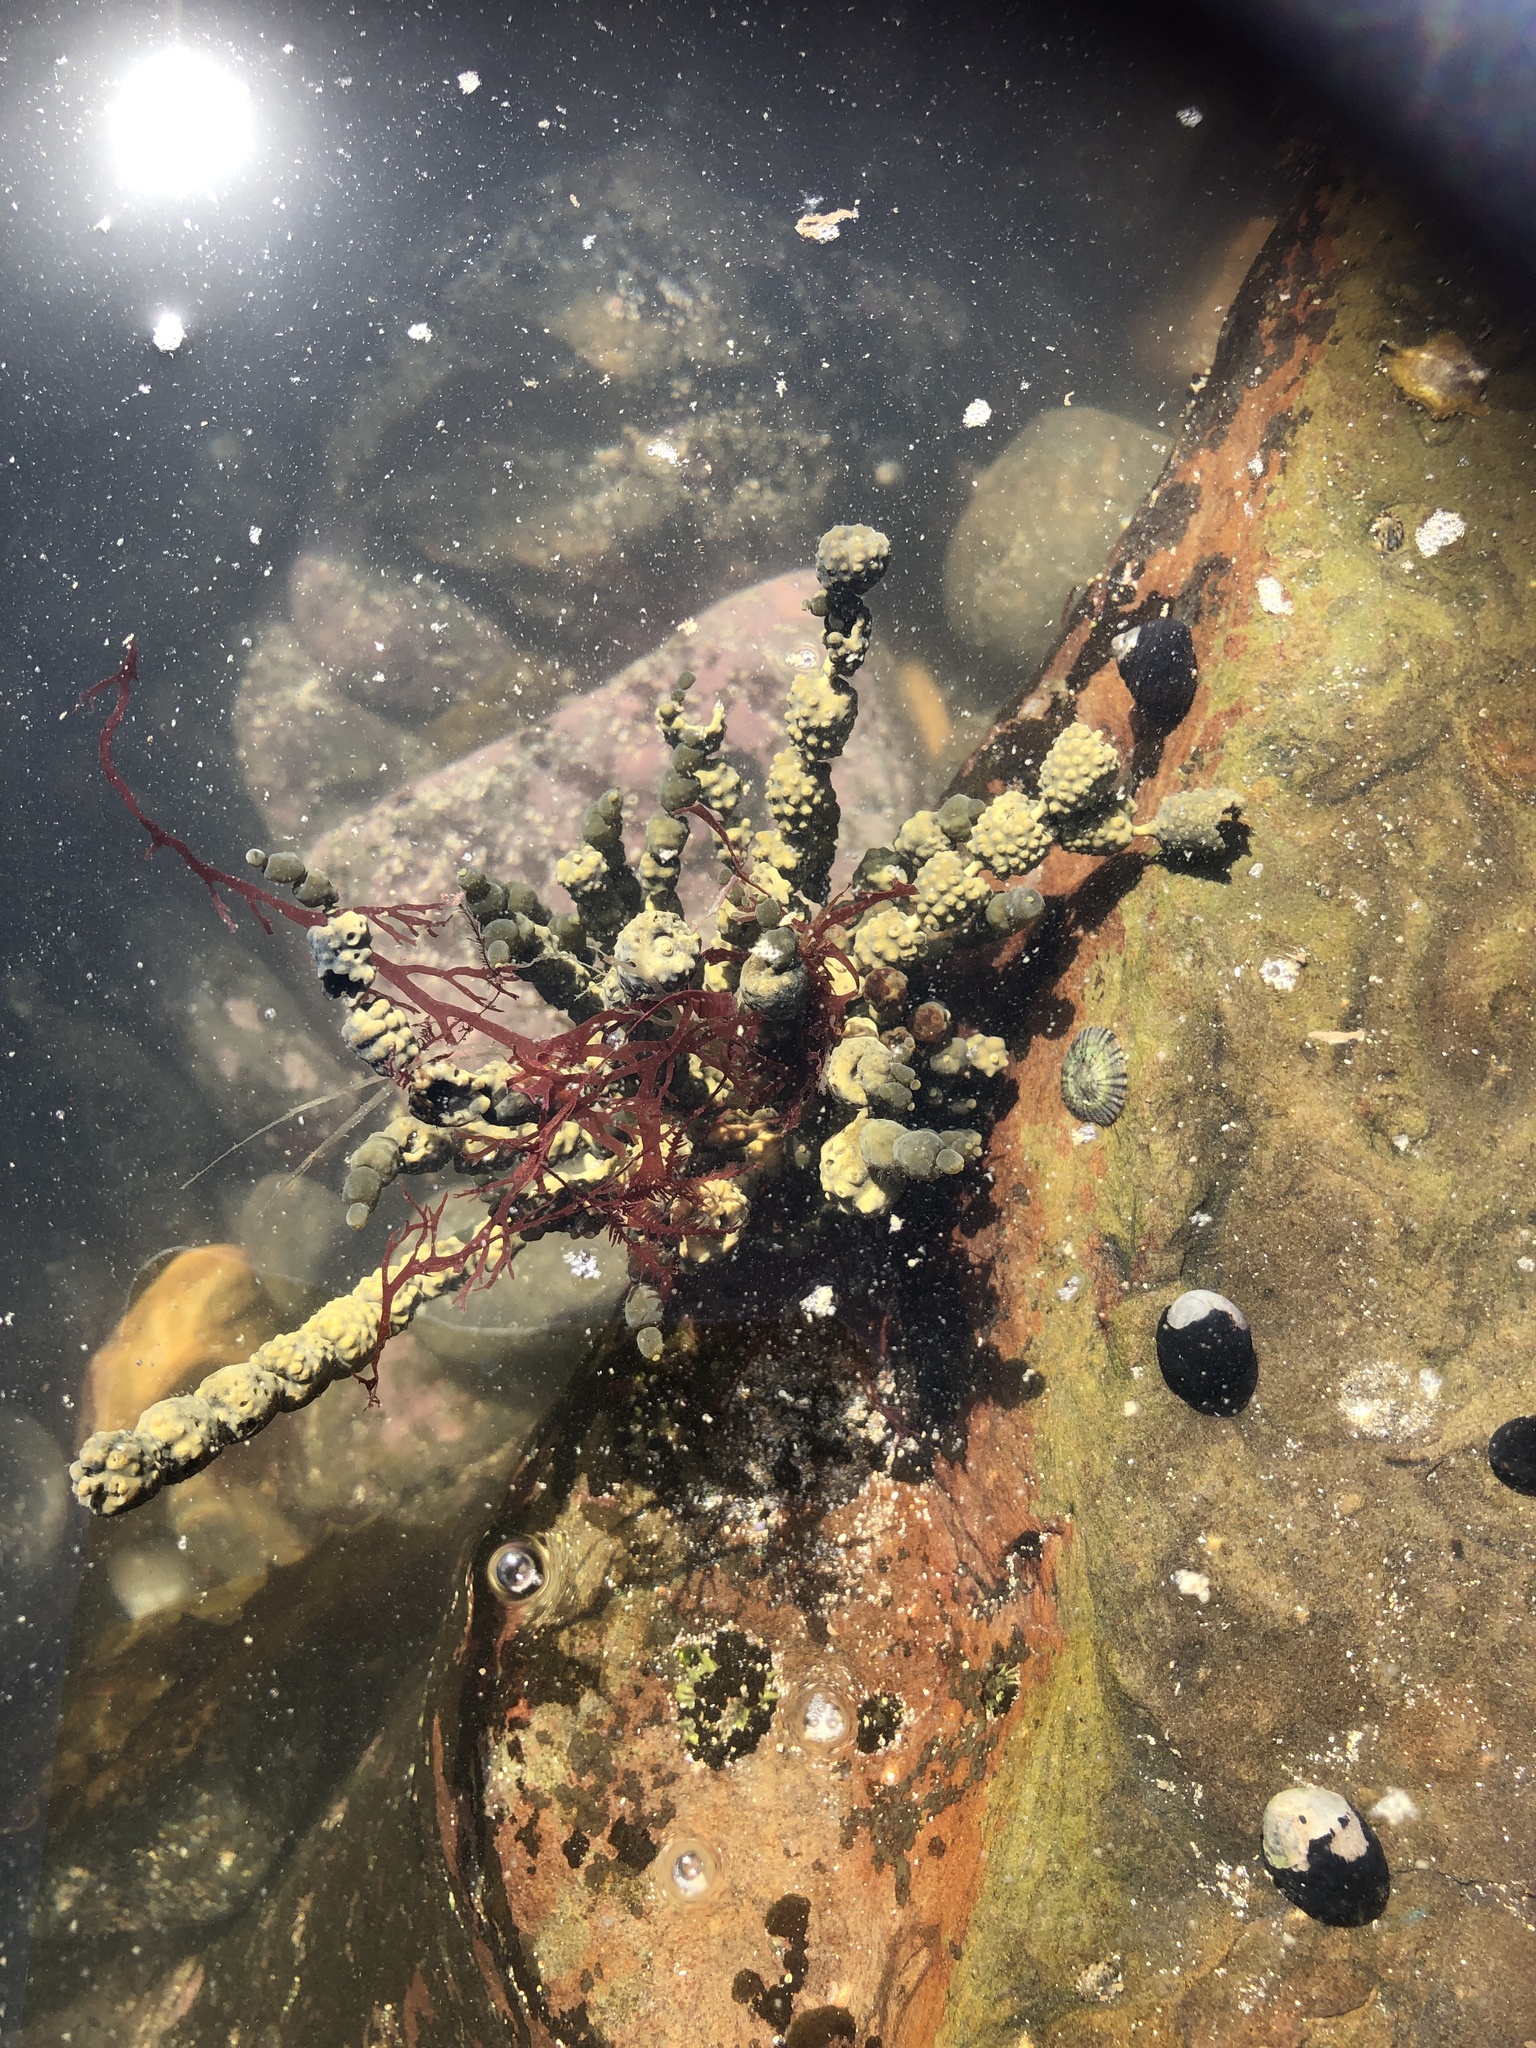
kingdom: Chromista
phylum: Ochrophyta
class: Phaeophyceae
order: Fucales
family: Hormosiraceae
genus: Hormosira
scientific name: Hormosira banksii
